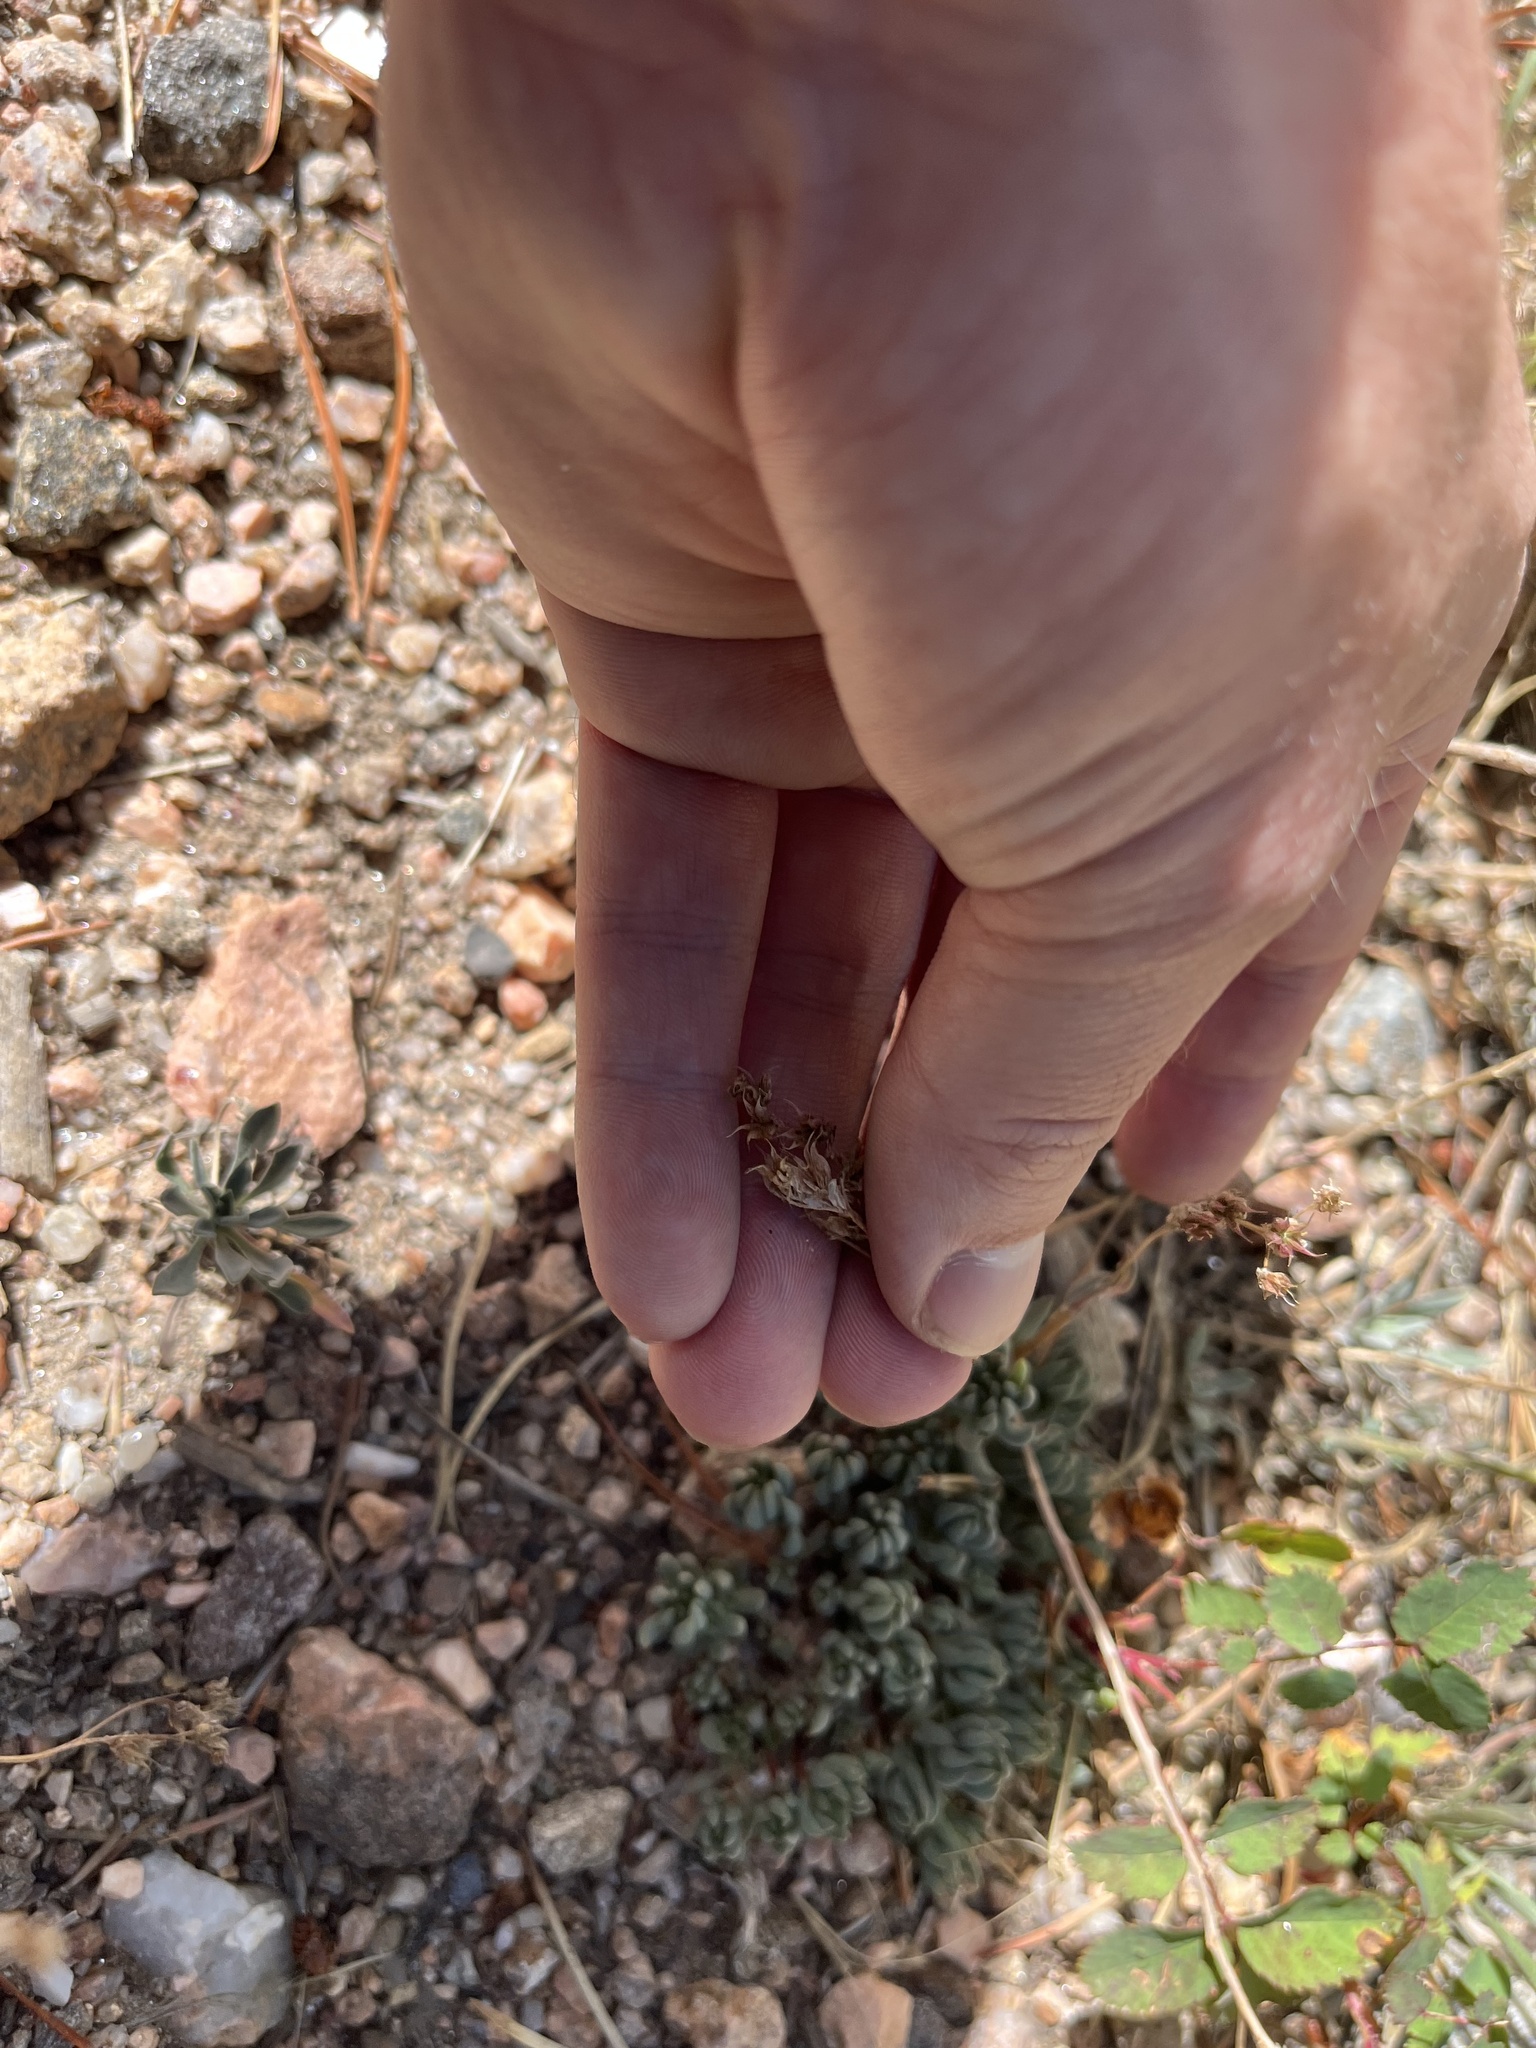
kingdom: Plantae
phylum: Tracheophyta
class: Magnoliopsida
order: Saxifragales
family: Crassulaceae
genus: Sedum
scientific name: Sedum lanceolatum
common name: Common stonecrop
